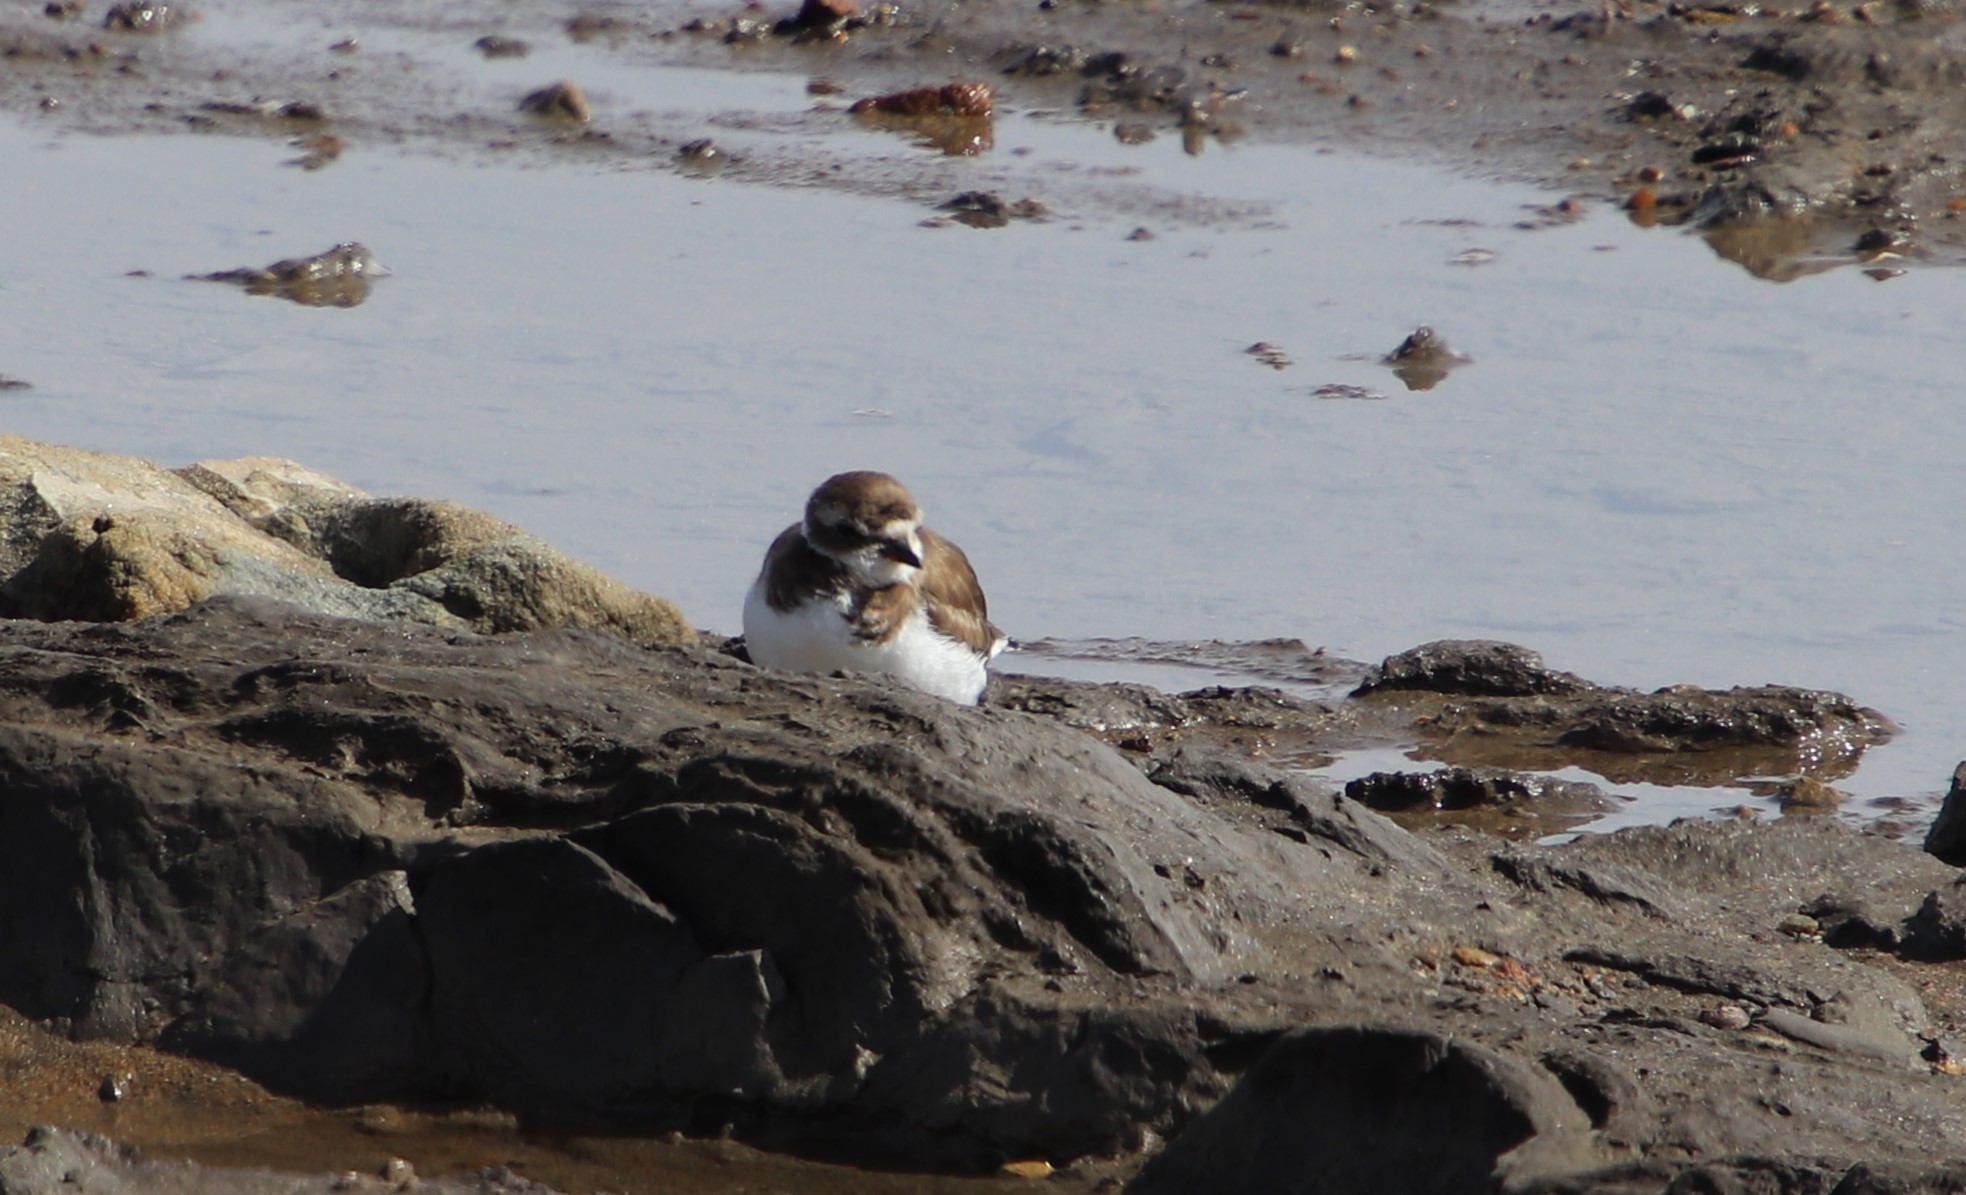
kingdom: Animalia
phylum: Chordata
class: Aves
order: Charadriiformes
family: Charadriidae
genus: Charadrius
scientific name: Charadrius semipalmatus
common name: Semipalmated plover
